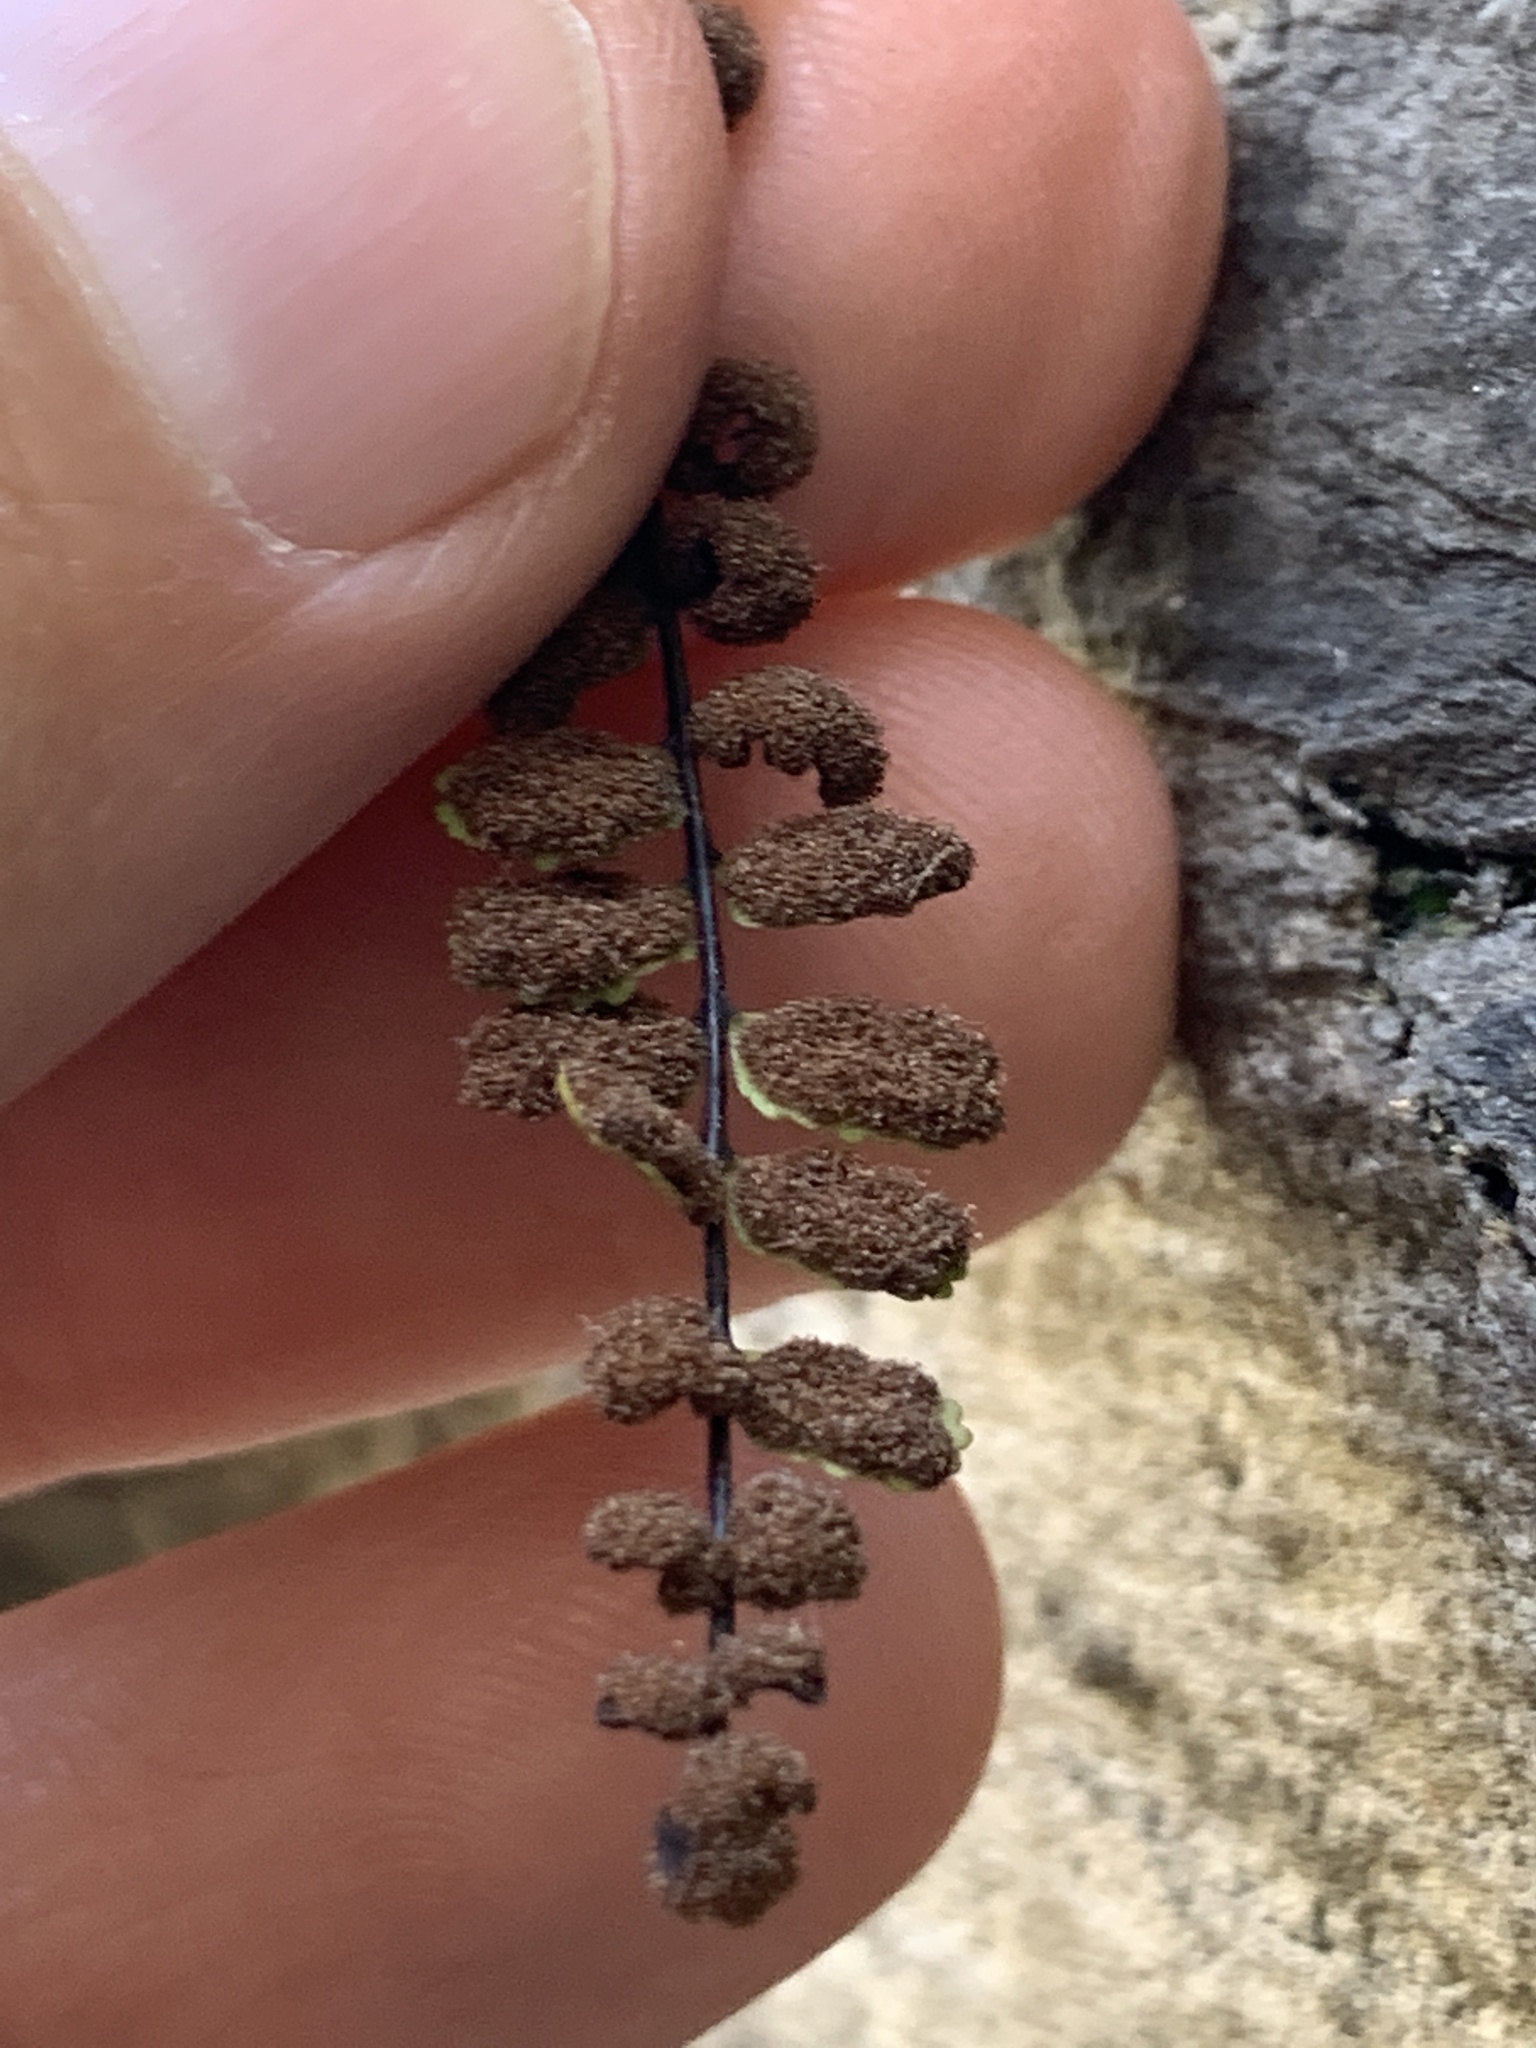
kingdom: Plantae
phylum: Tracheophyta
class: Polypodiopsida
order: Polypodiales
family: Aspleniaceae
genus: Asplenium
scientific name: Asplenium trichomanes
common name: Maidenhair spleenwort
